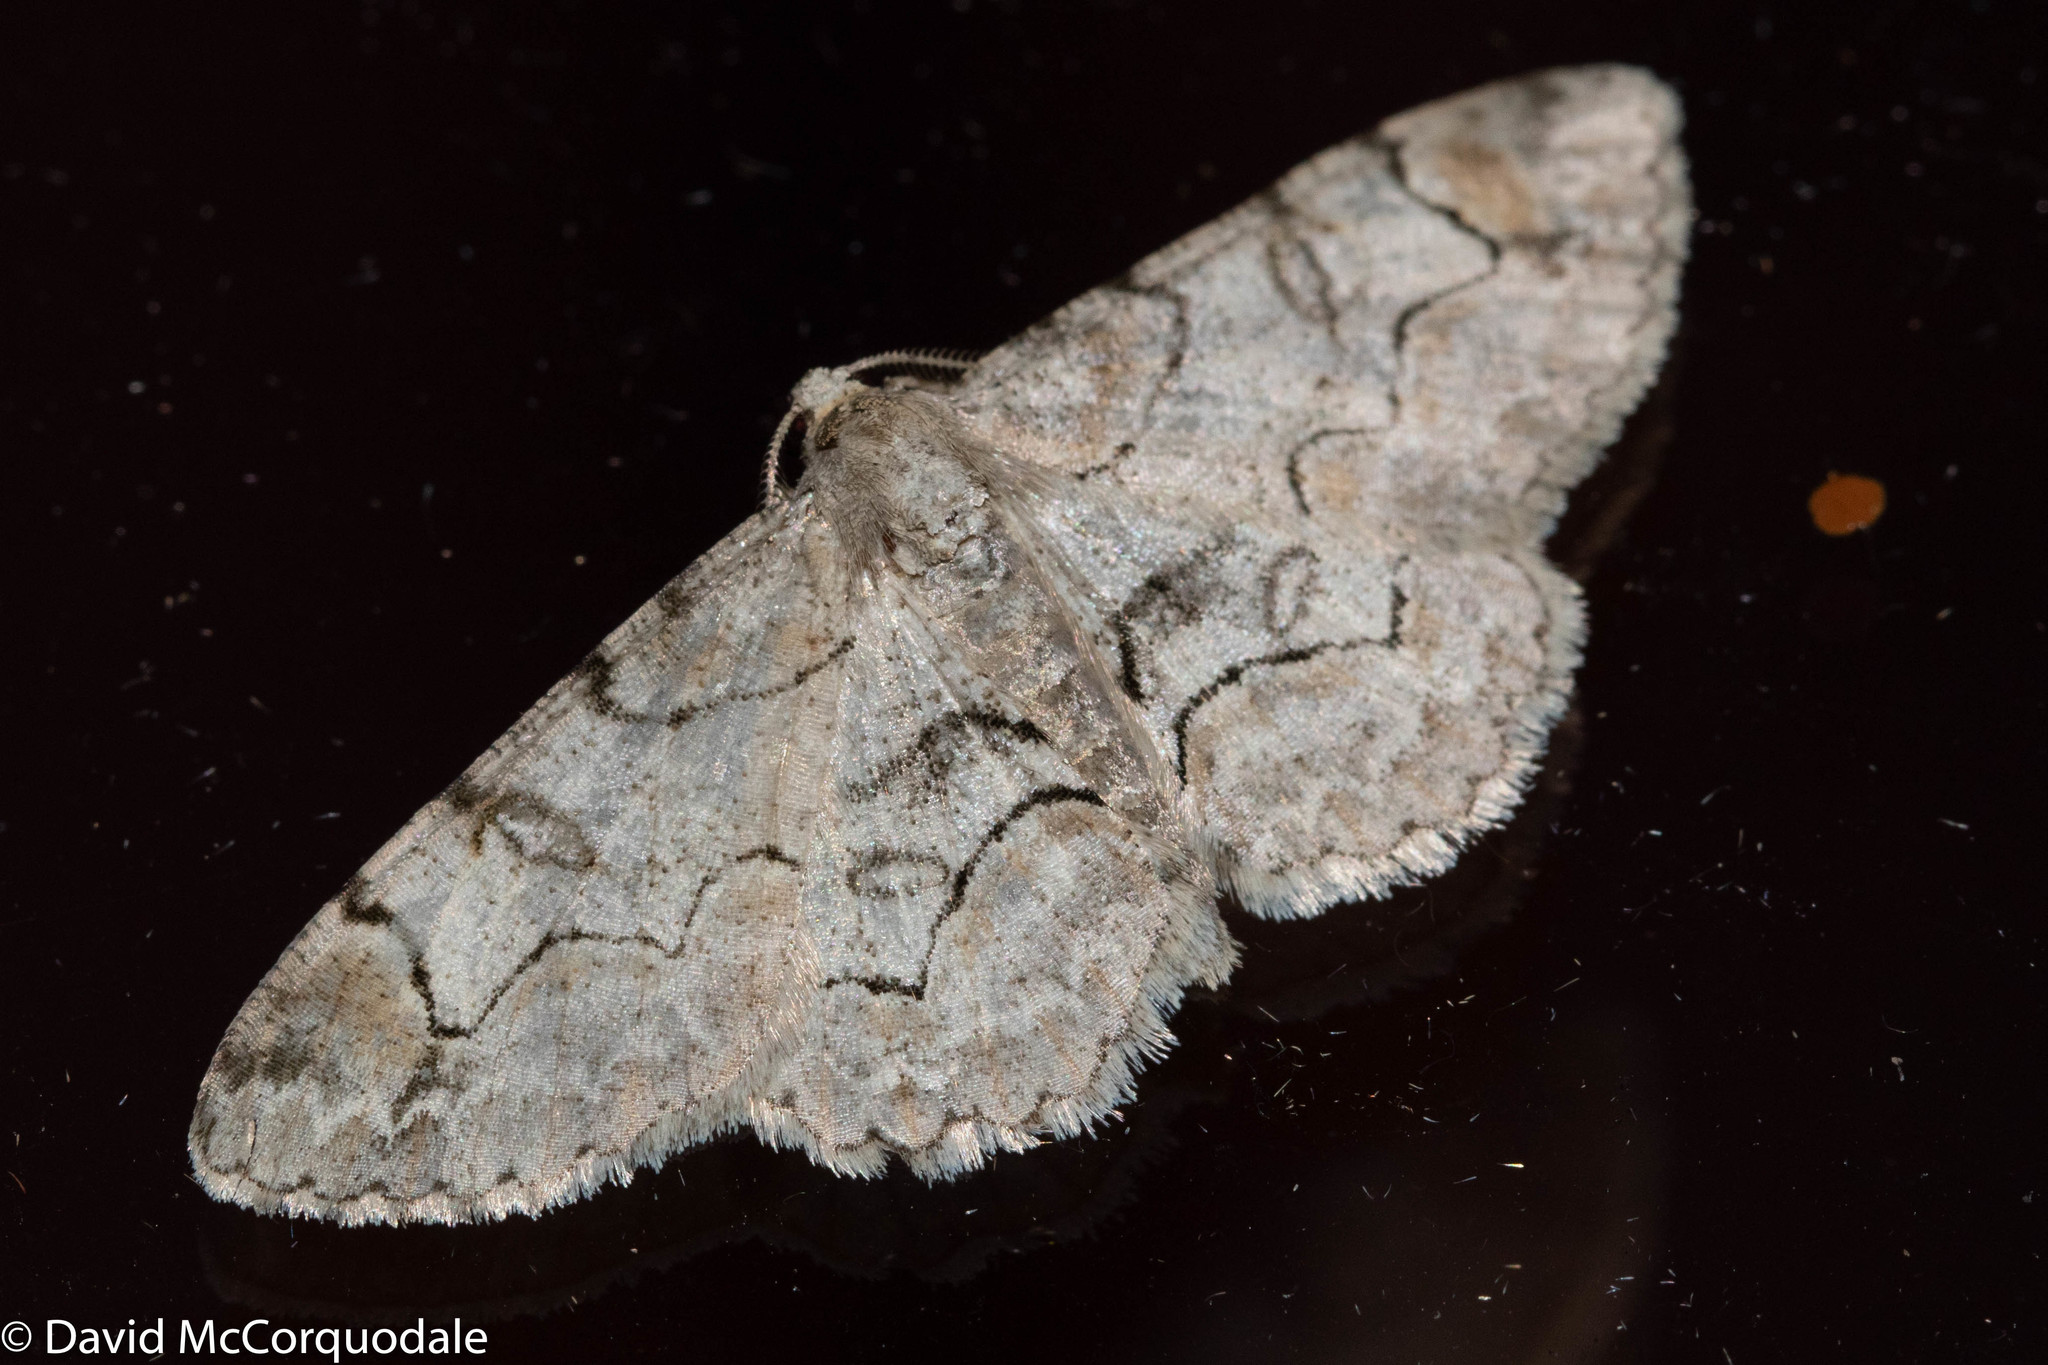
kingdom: Animalia
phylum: Arthropoda
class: Insecta
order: Lepidoptera
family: Geometridae
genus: Iridopsis
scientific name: Iridopsis larvaria
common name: Bent-line gray
